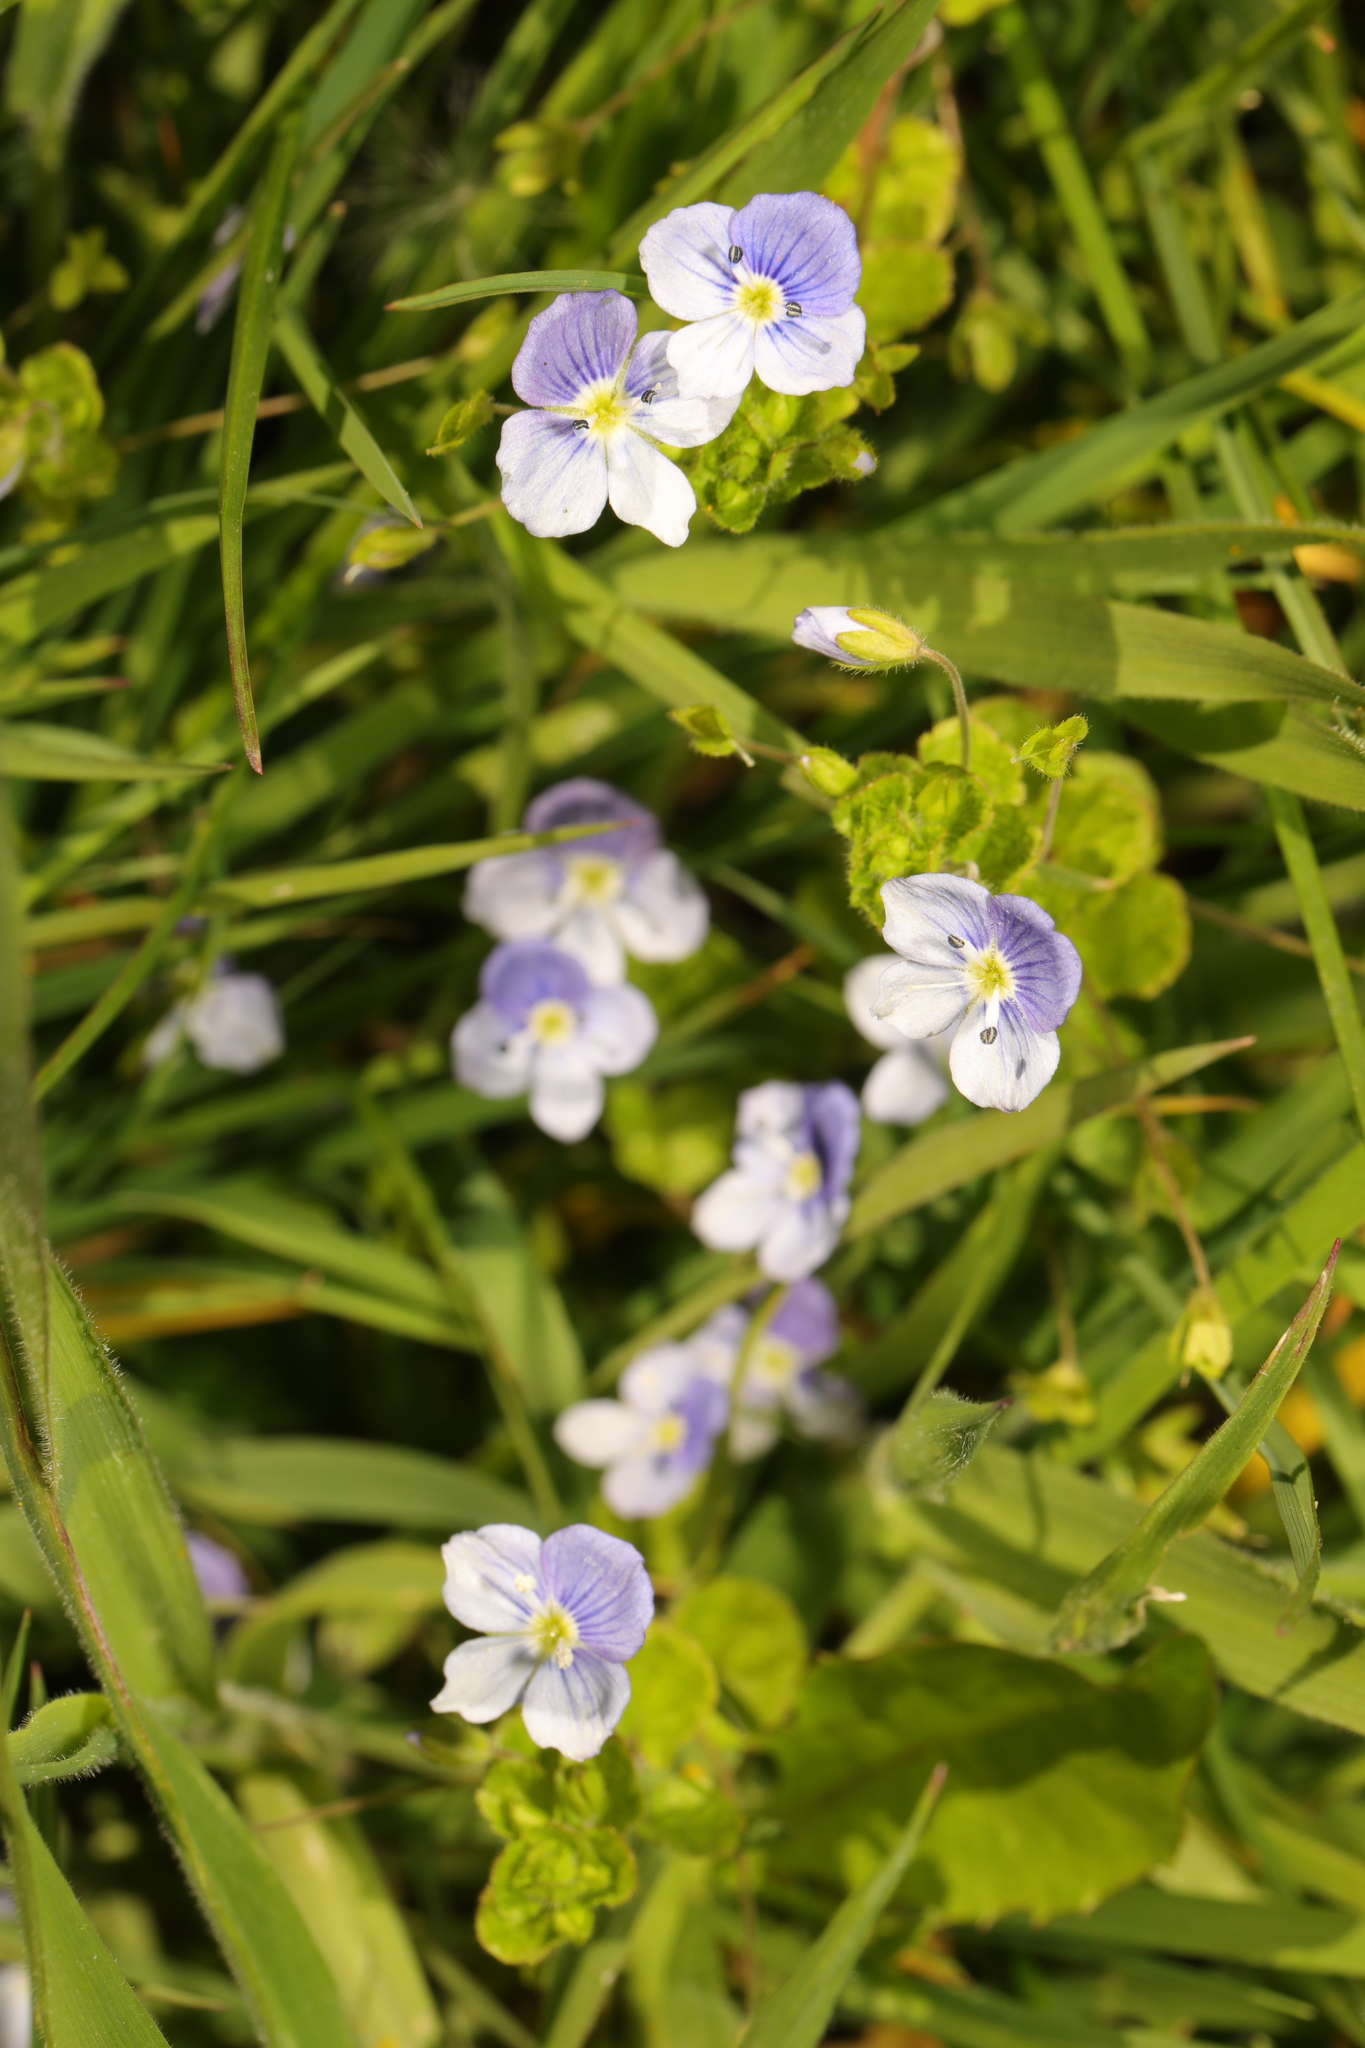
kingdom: Plantae
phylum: Tracheophyta
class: Magnoliopsida
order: Lamiales
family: Plantaginaceae
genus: Veronica
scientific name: Veronica filiformis
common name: Slender speedwell
